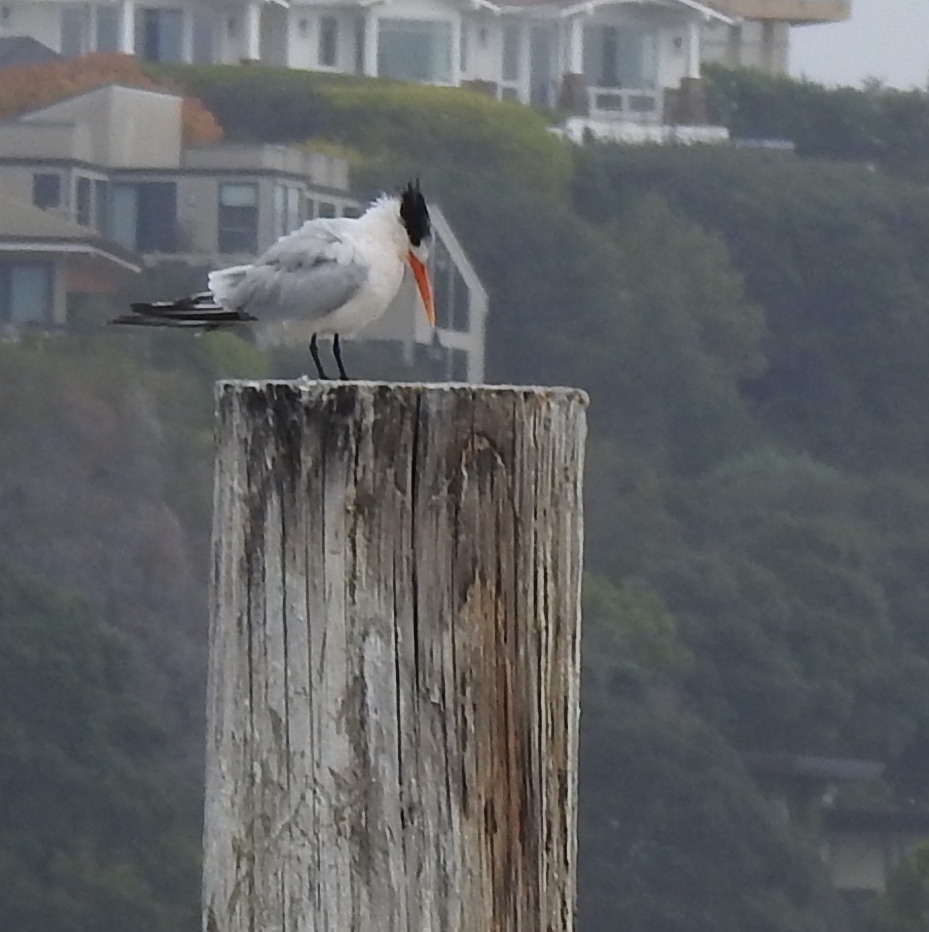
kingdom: Animalia
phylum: Chordata
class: Aves
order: Charadriiformes
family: Laridae
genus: Thalasseus
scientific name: Thalasseus elegans
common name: Elegant tern
